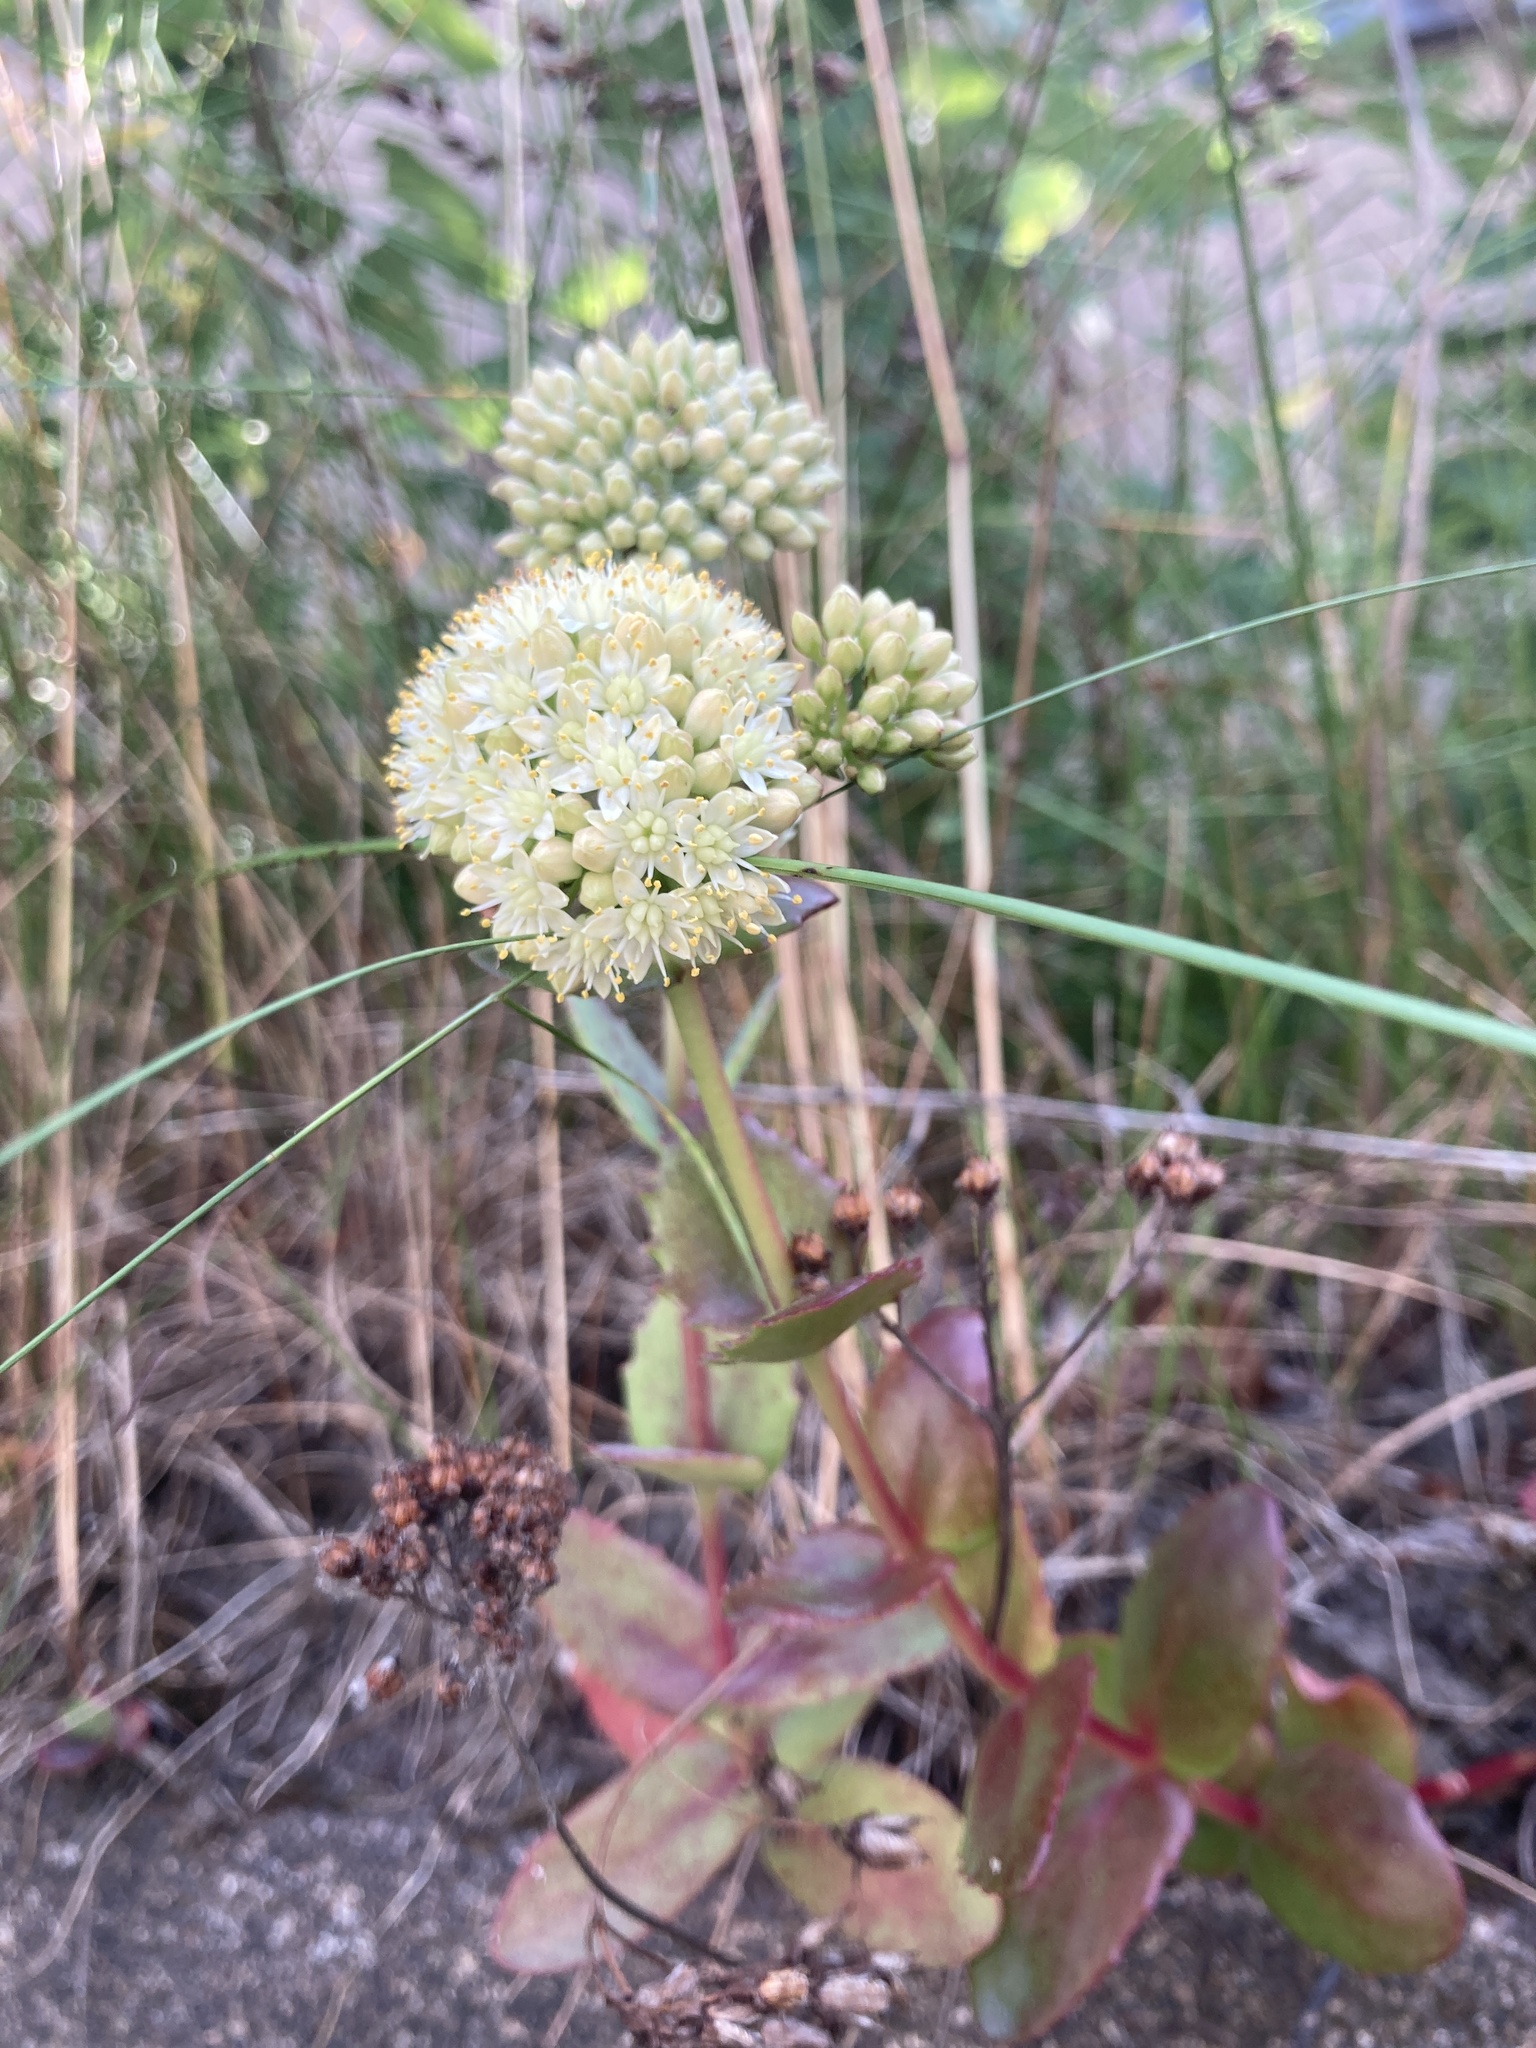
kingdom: Plantae
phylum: Tracheophyta
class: Magnoliopsida
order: Saxifragales
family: Crassulaceae
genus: Hylotelephium
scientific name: Hylotelephium maximum
